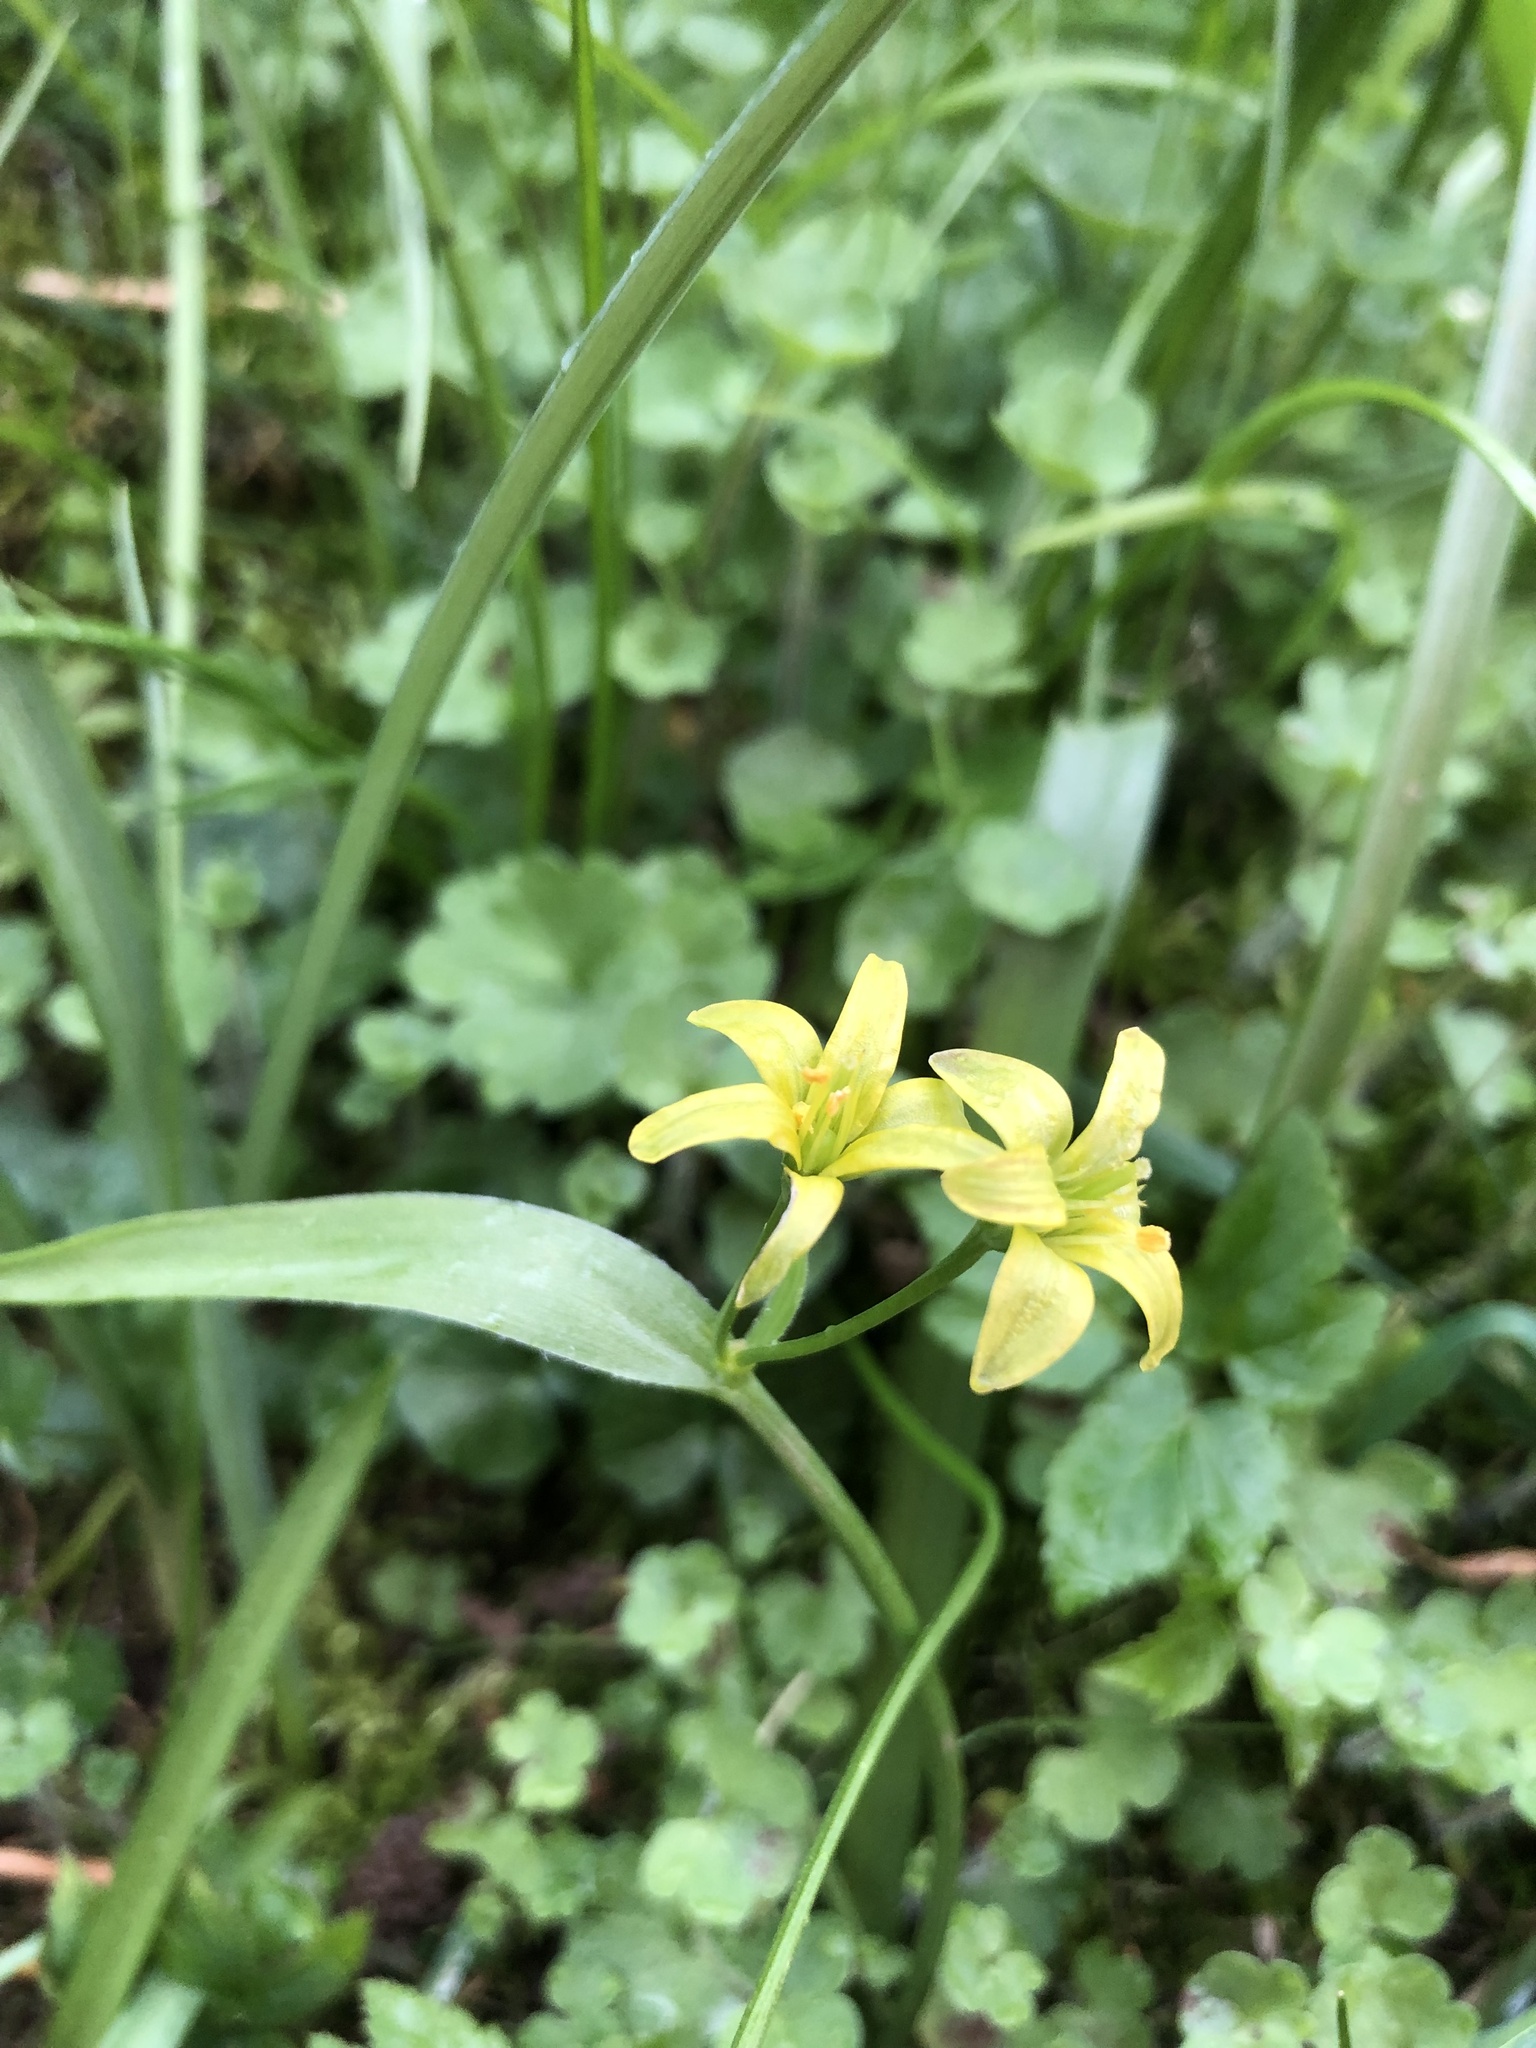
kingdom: Plantae
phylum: Tracheophyta
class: Liliopsida
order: Liliales
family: Liliaceae
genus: Gagea
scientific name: Gagea lutea
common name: Yellow star-of-bethlehem
